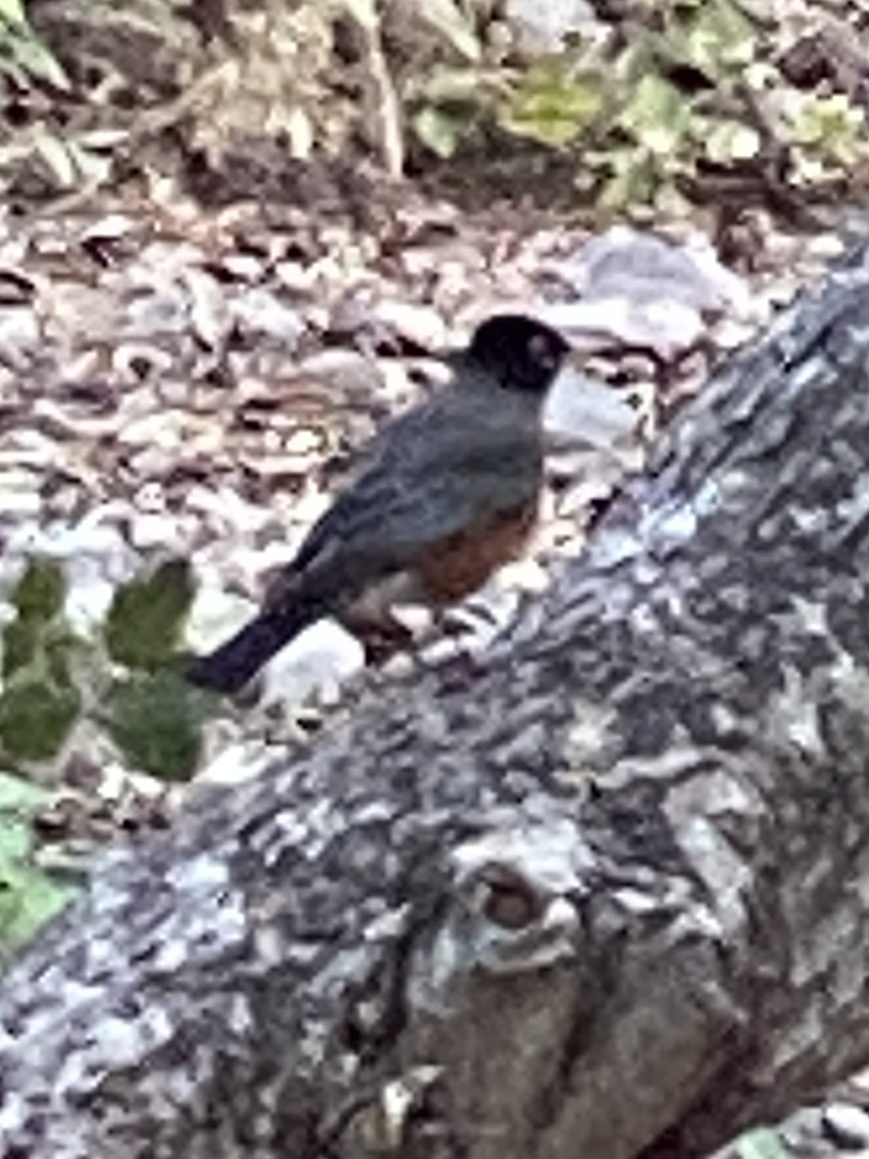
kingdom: Animalia
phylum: Chordata
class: Aves
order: Passeriformes
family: Turdidae
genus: Turdus
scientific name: Turdus migratorius
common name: American robin
